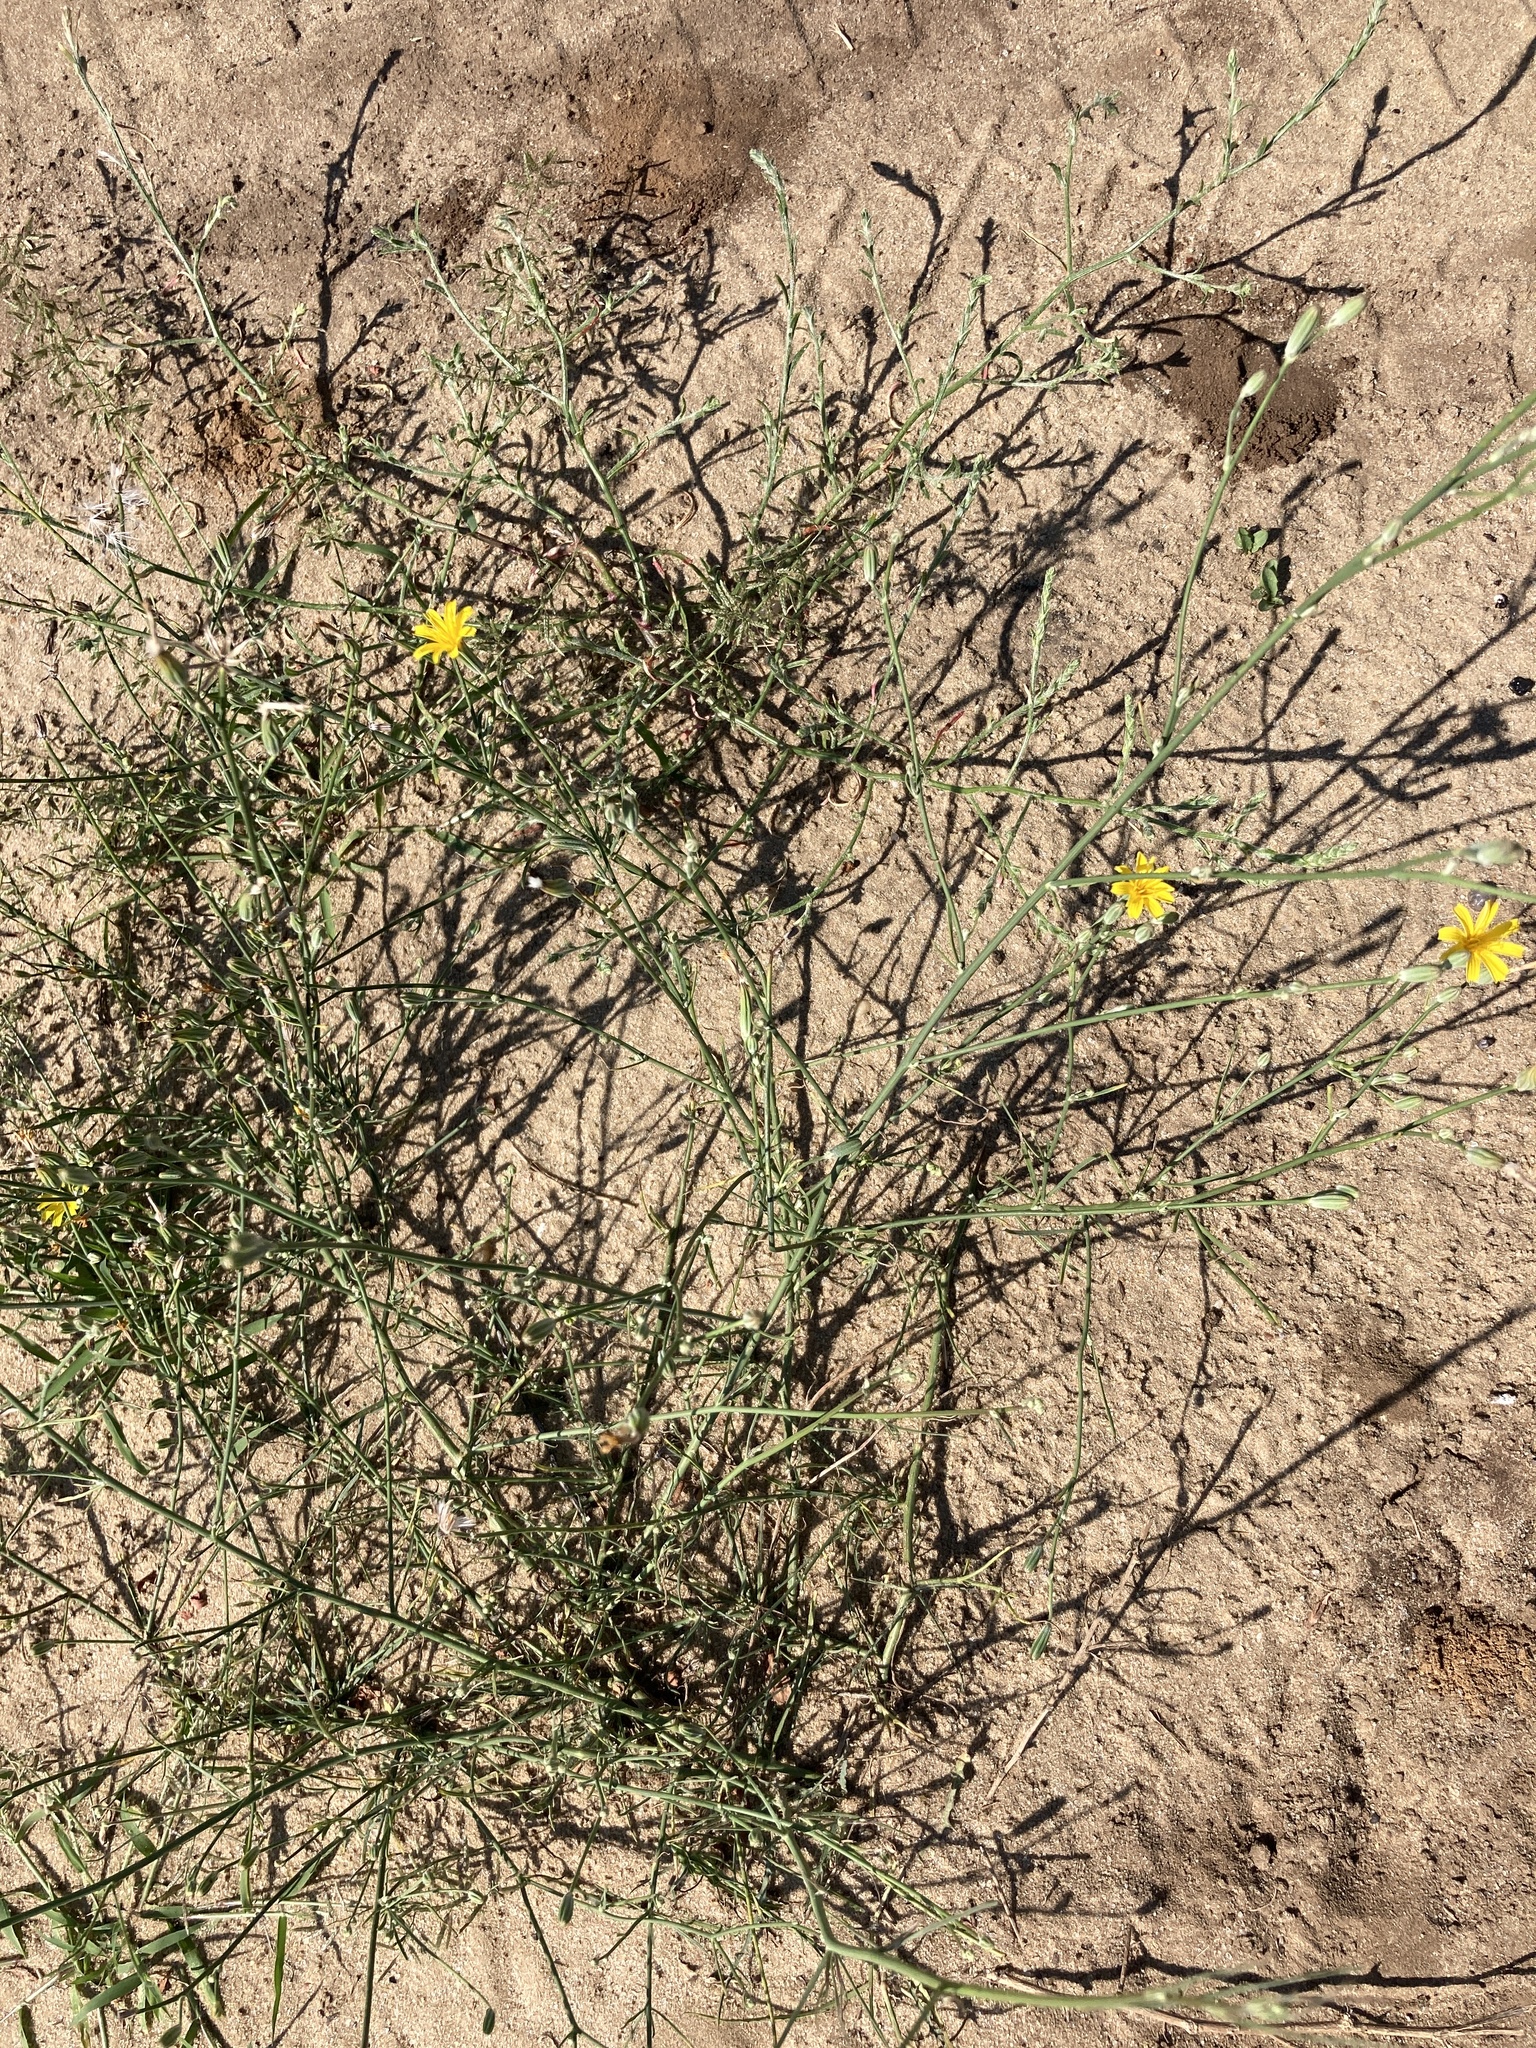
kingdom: Plantae
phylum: Tracheophyta
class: Magnoliopsida
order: Asterales
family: Asteraceae
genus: Chondrilla
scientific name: Chondrilla juncea
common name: Skeleton weed
